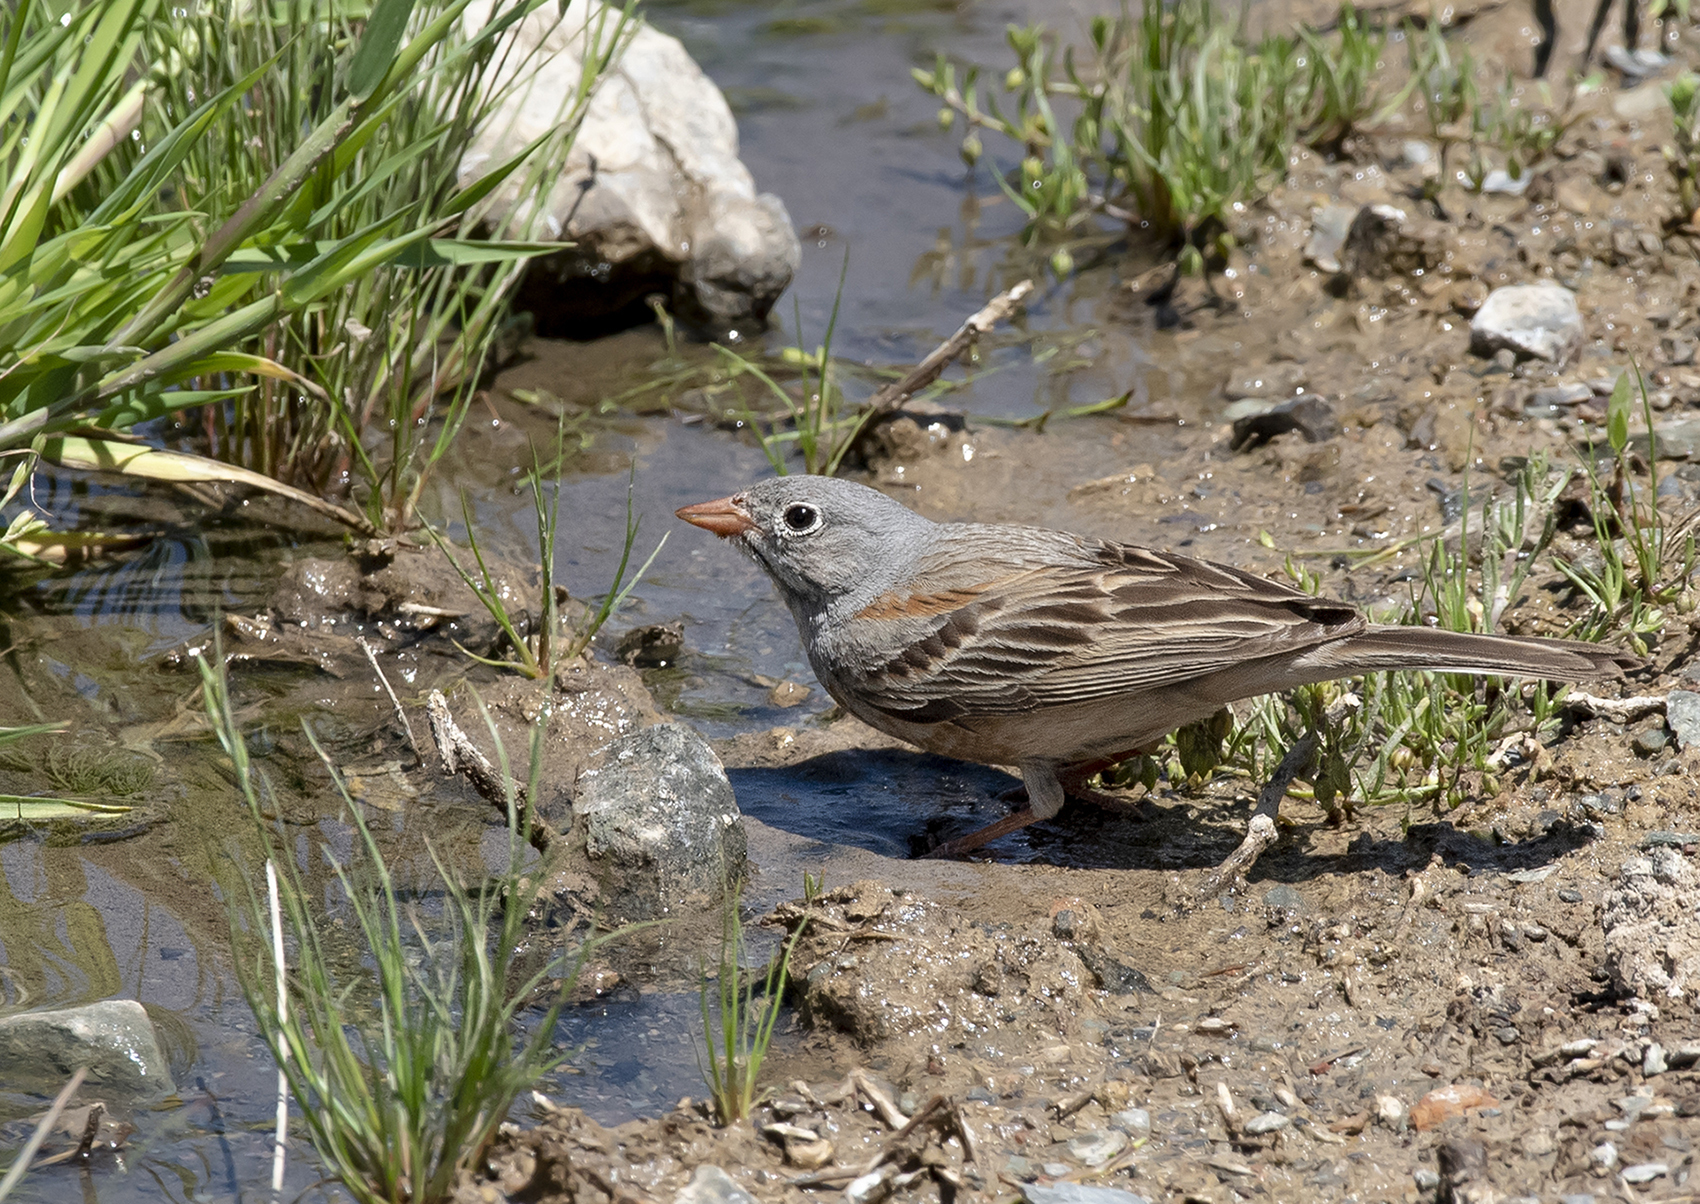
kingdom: Animalia
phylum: Chordata
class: Aves
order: Passeriformes
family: Emberizidae
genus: Emberiza
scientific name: Emberiza buchanani
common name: Grey-necked bunting
